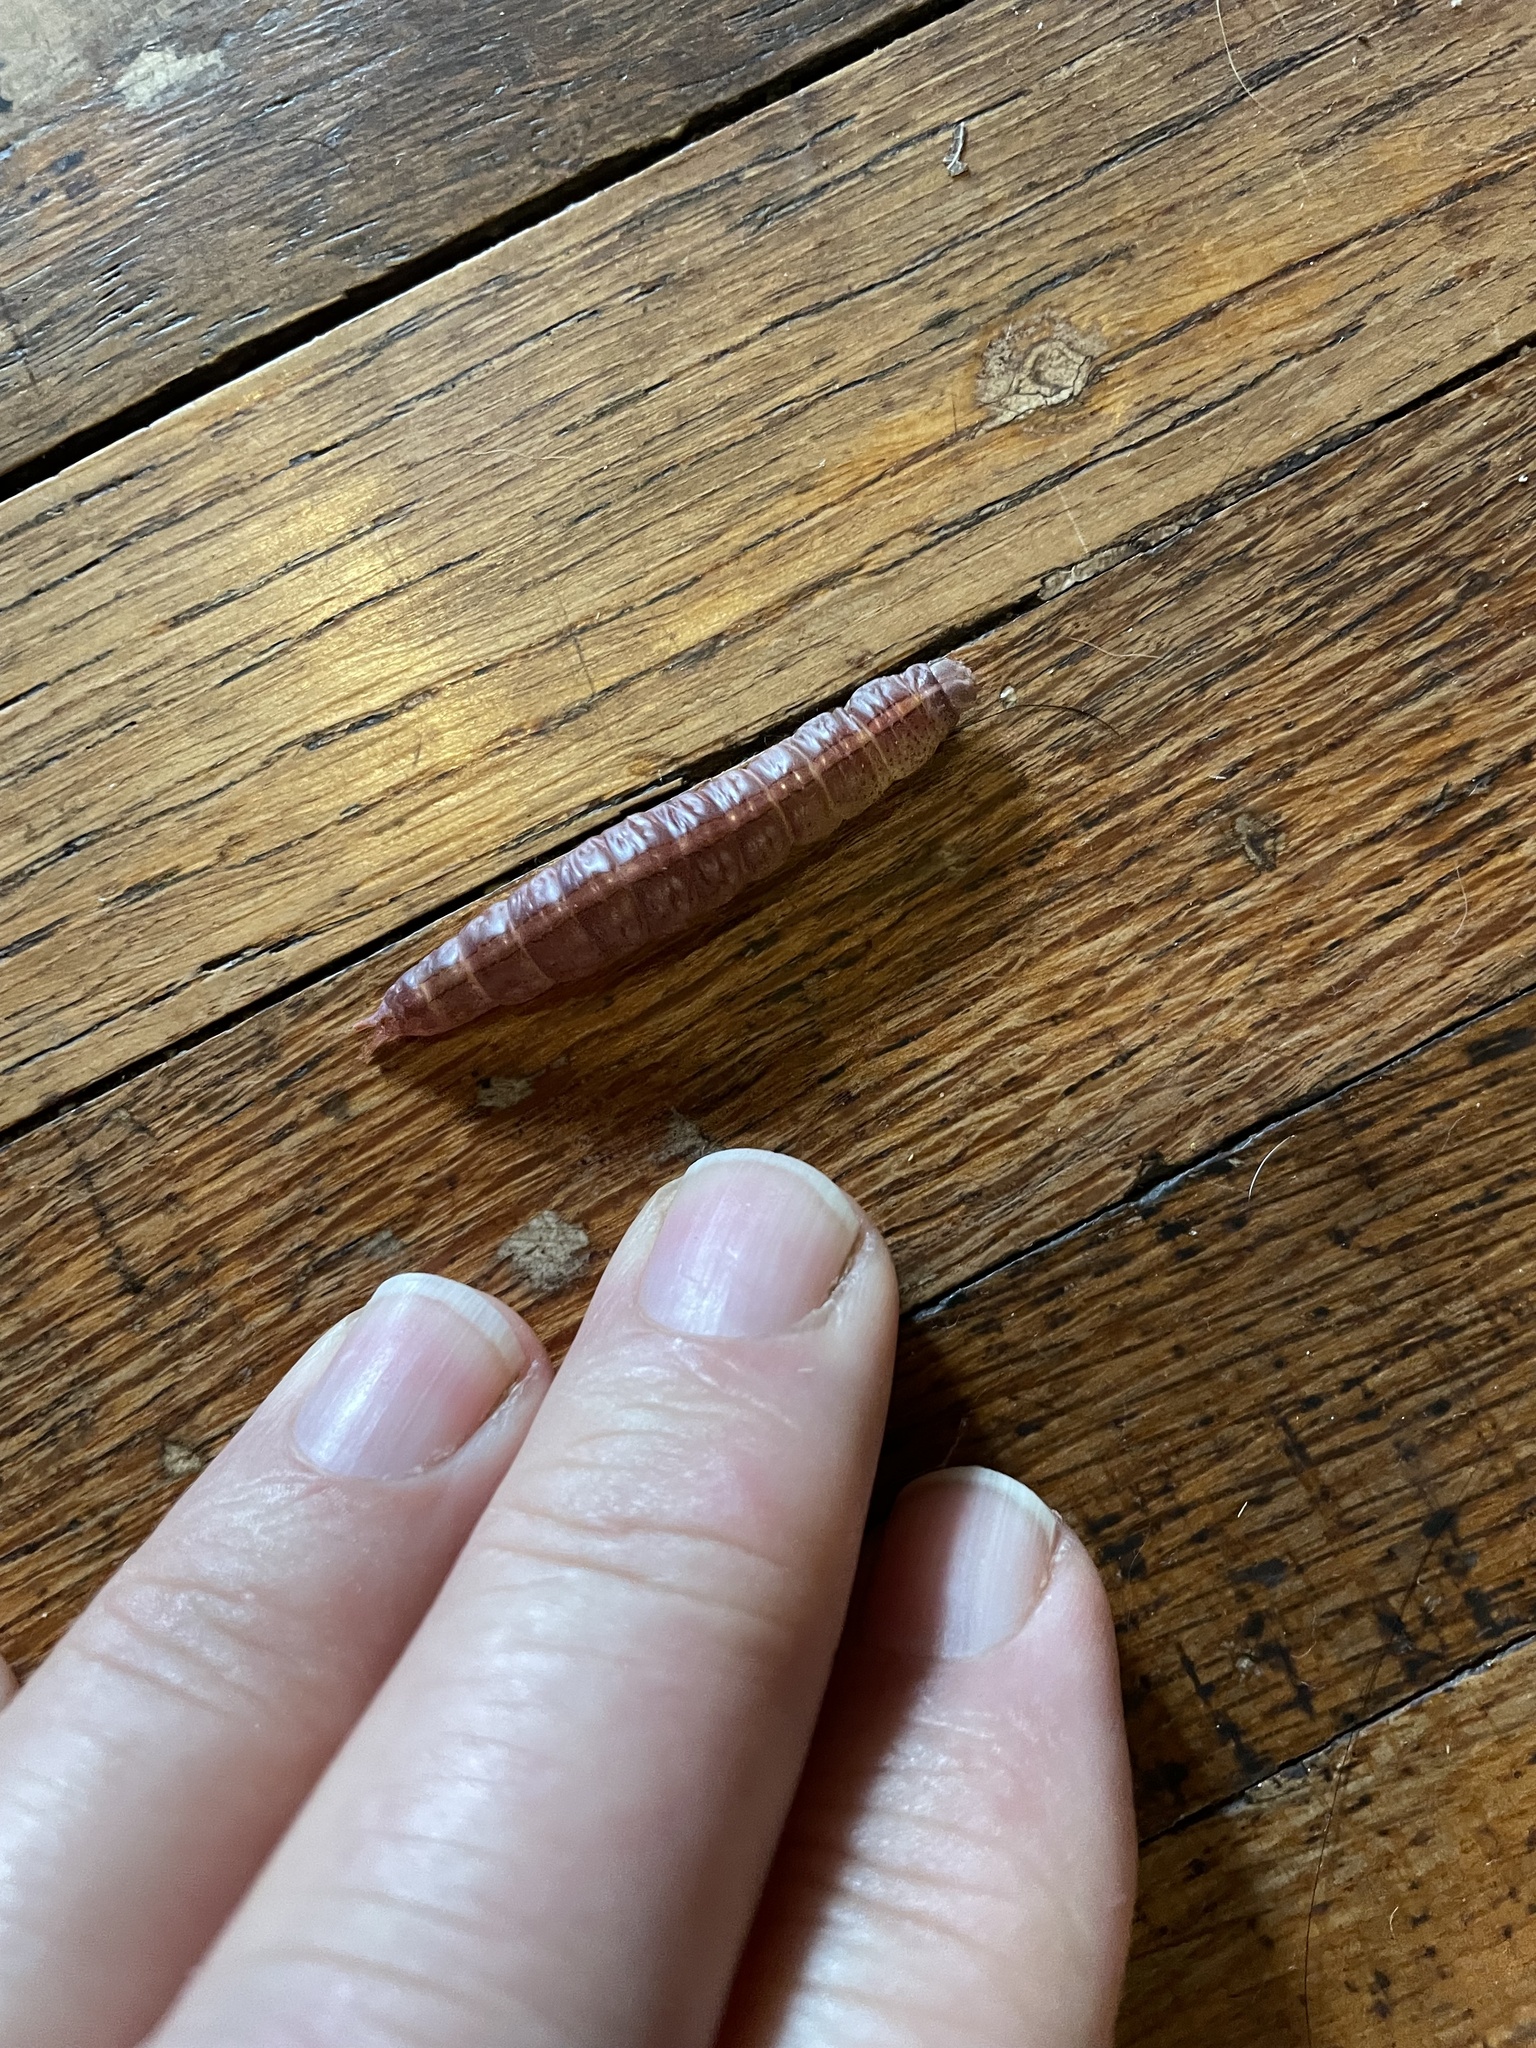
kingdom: Animalia
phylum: Arthropoda
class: Insecta
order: Lepidoptera
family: Notodontidae
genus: Misogada
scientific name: Misogada unicolor
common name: Drab prominent
